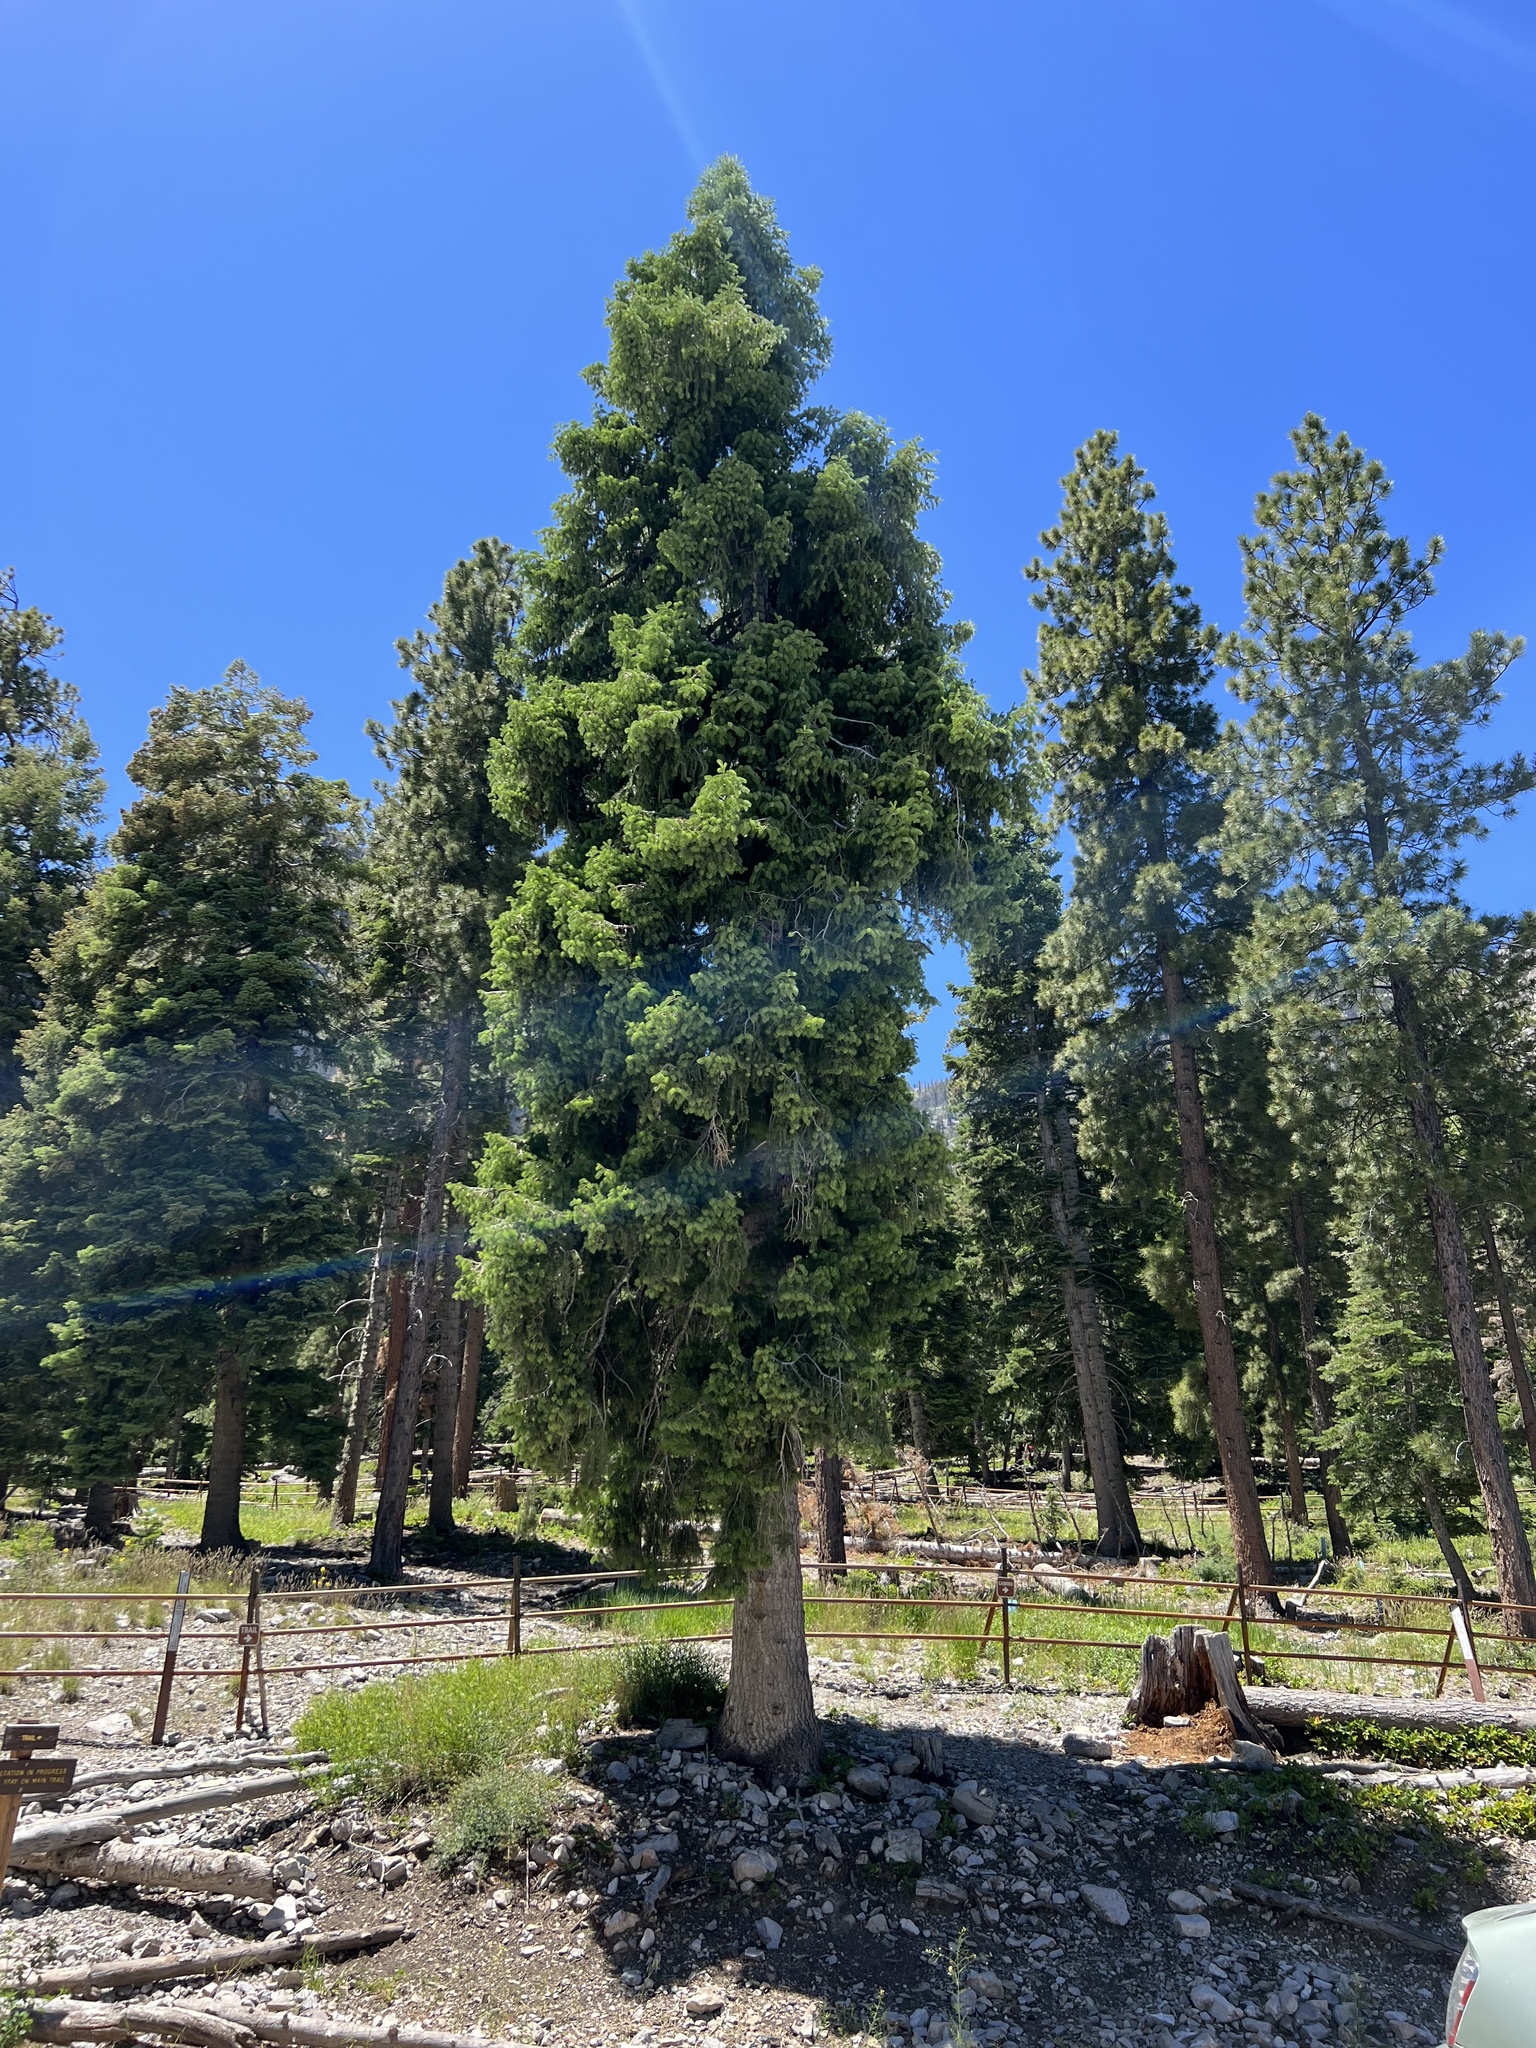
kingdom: Plantae
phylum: Tracheophyta
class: Pinopsida
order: Pinales
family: Pinaceae
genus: Abies
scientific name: Abies concolor
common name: Colorado fir
